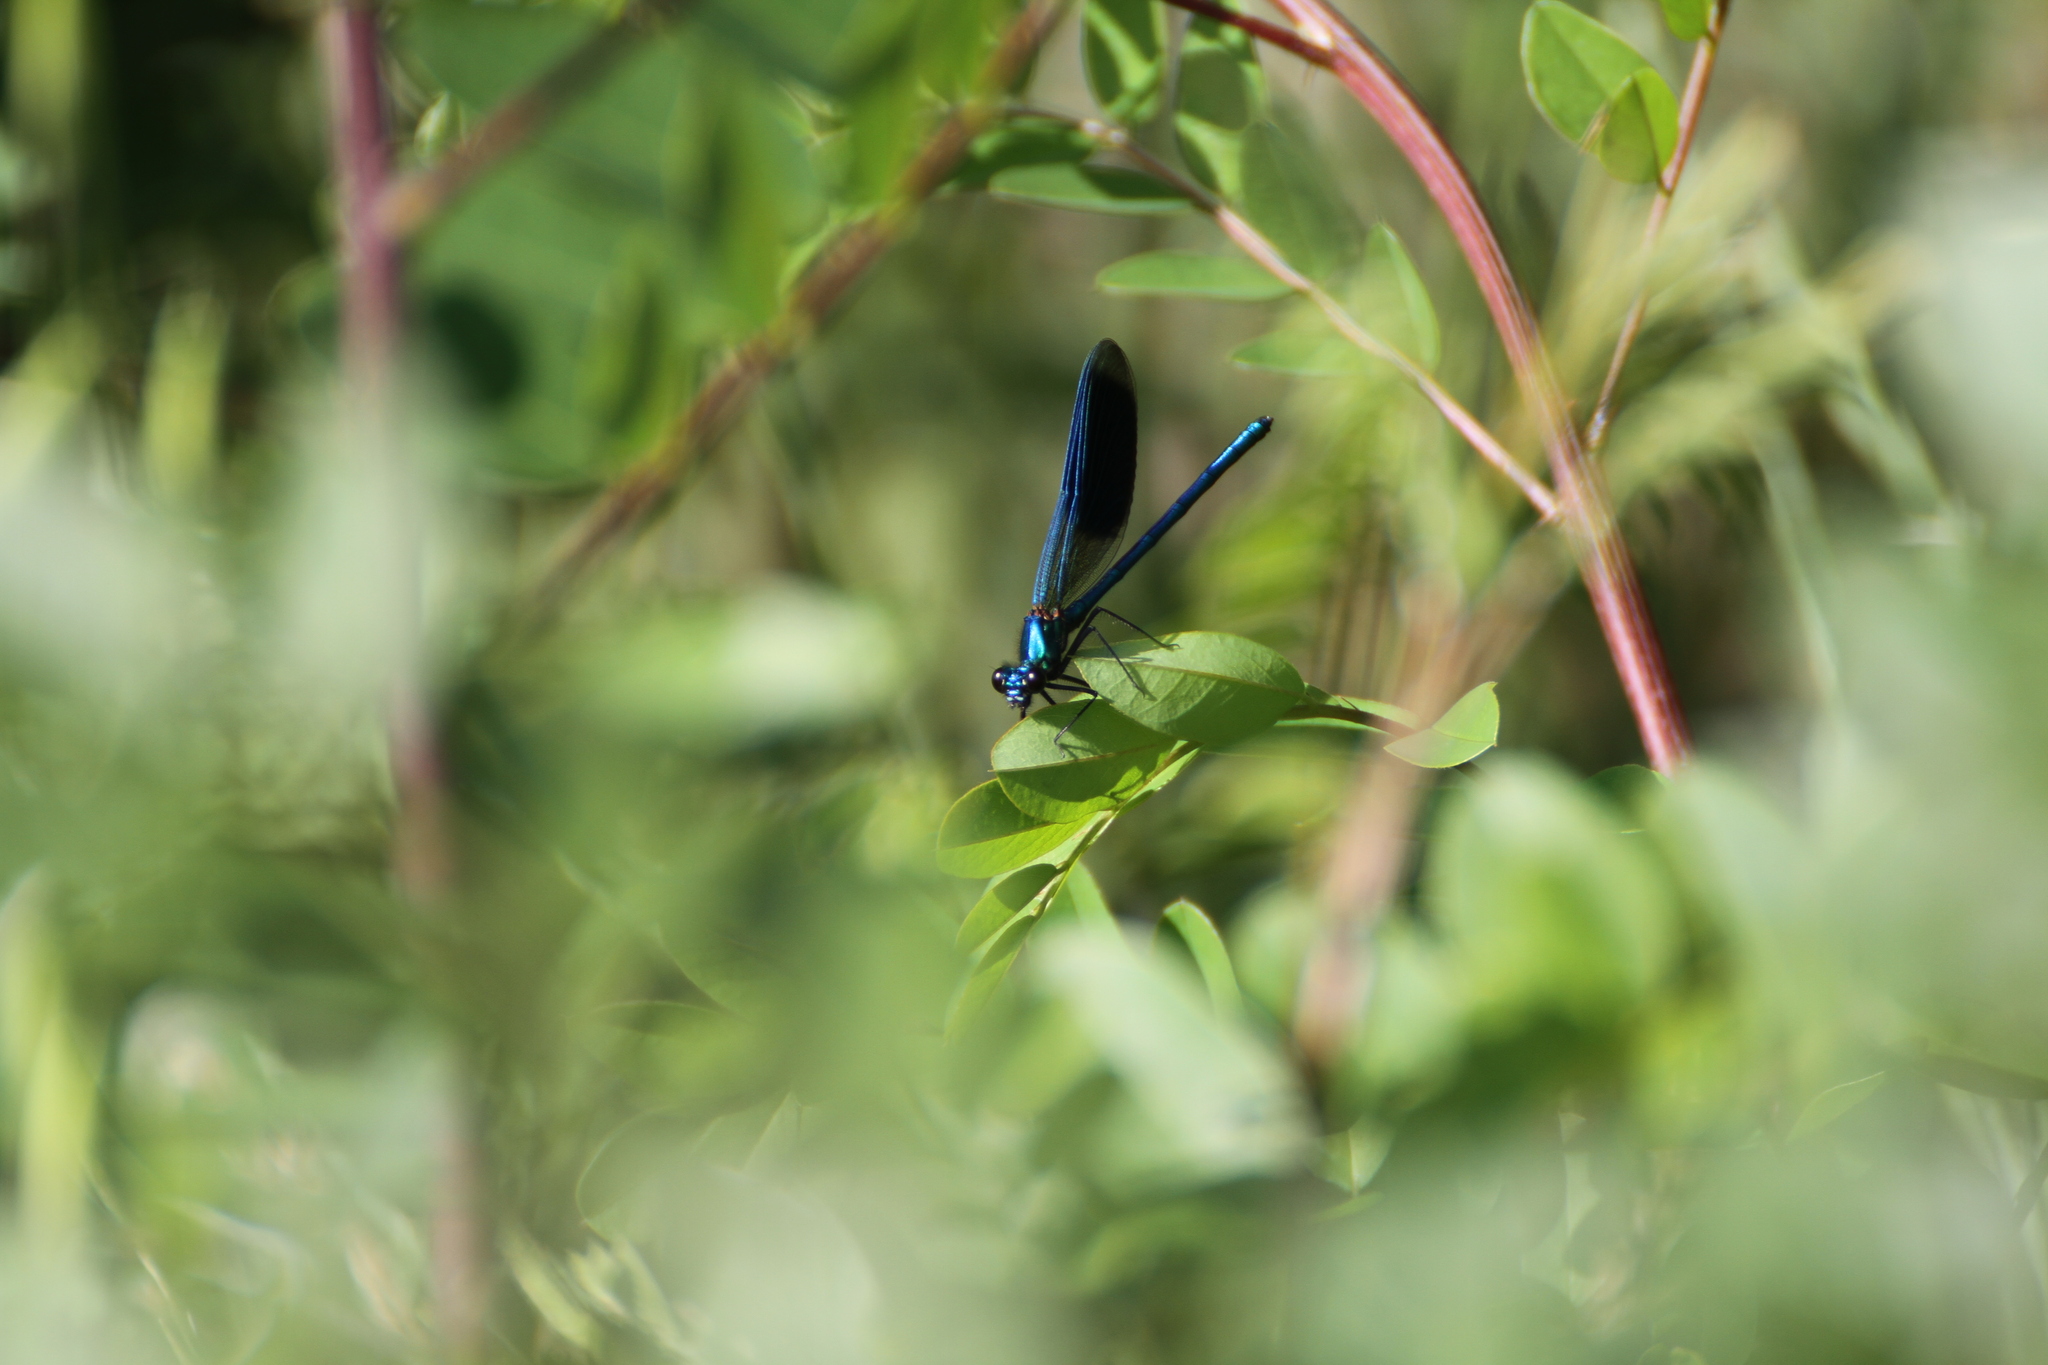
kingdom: Animalia
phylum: Arthropoda
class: Insecta
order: Odonata
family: Calopterygidae
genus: Calopteryx
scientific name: Calopteryx splendens
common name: Banded demoiselle
